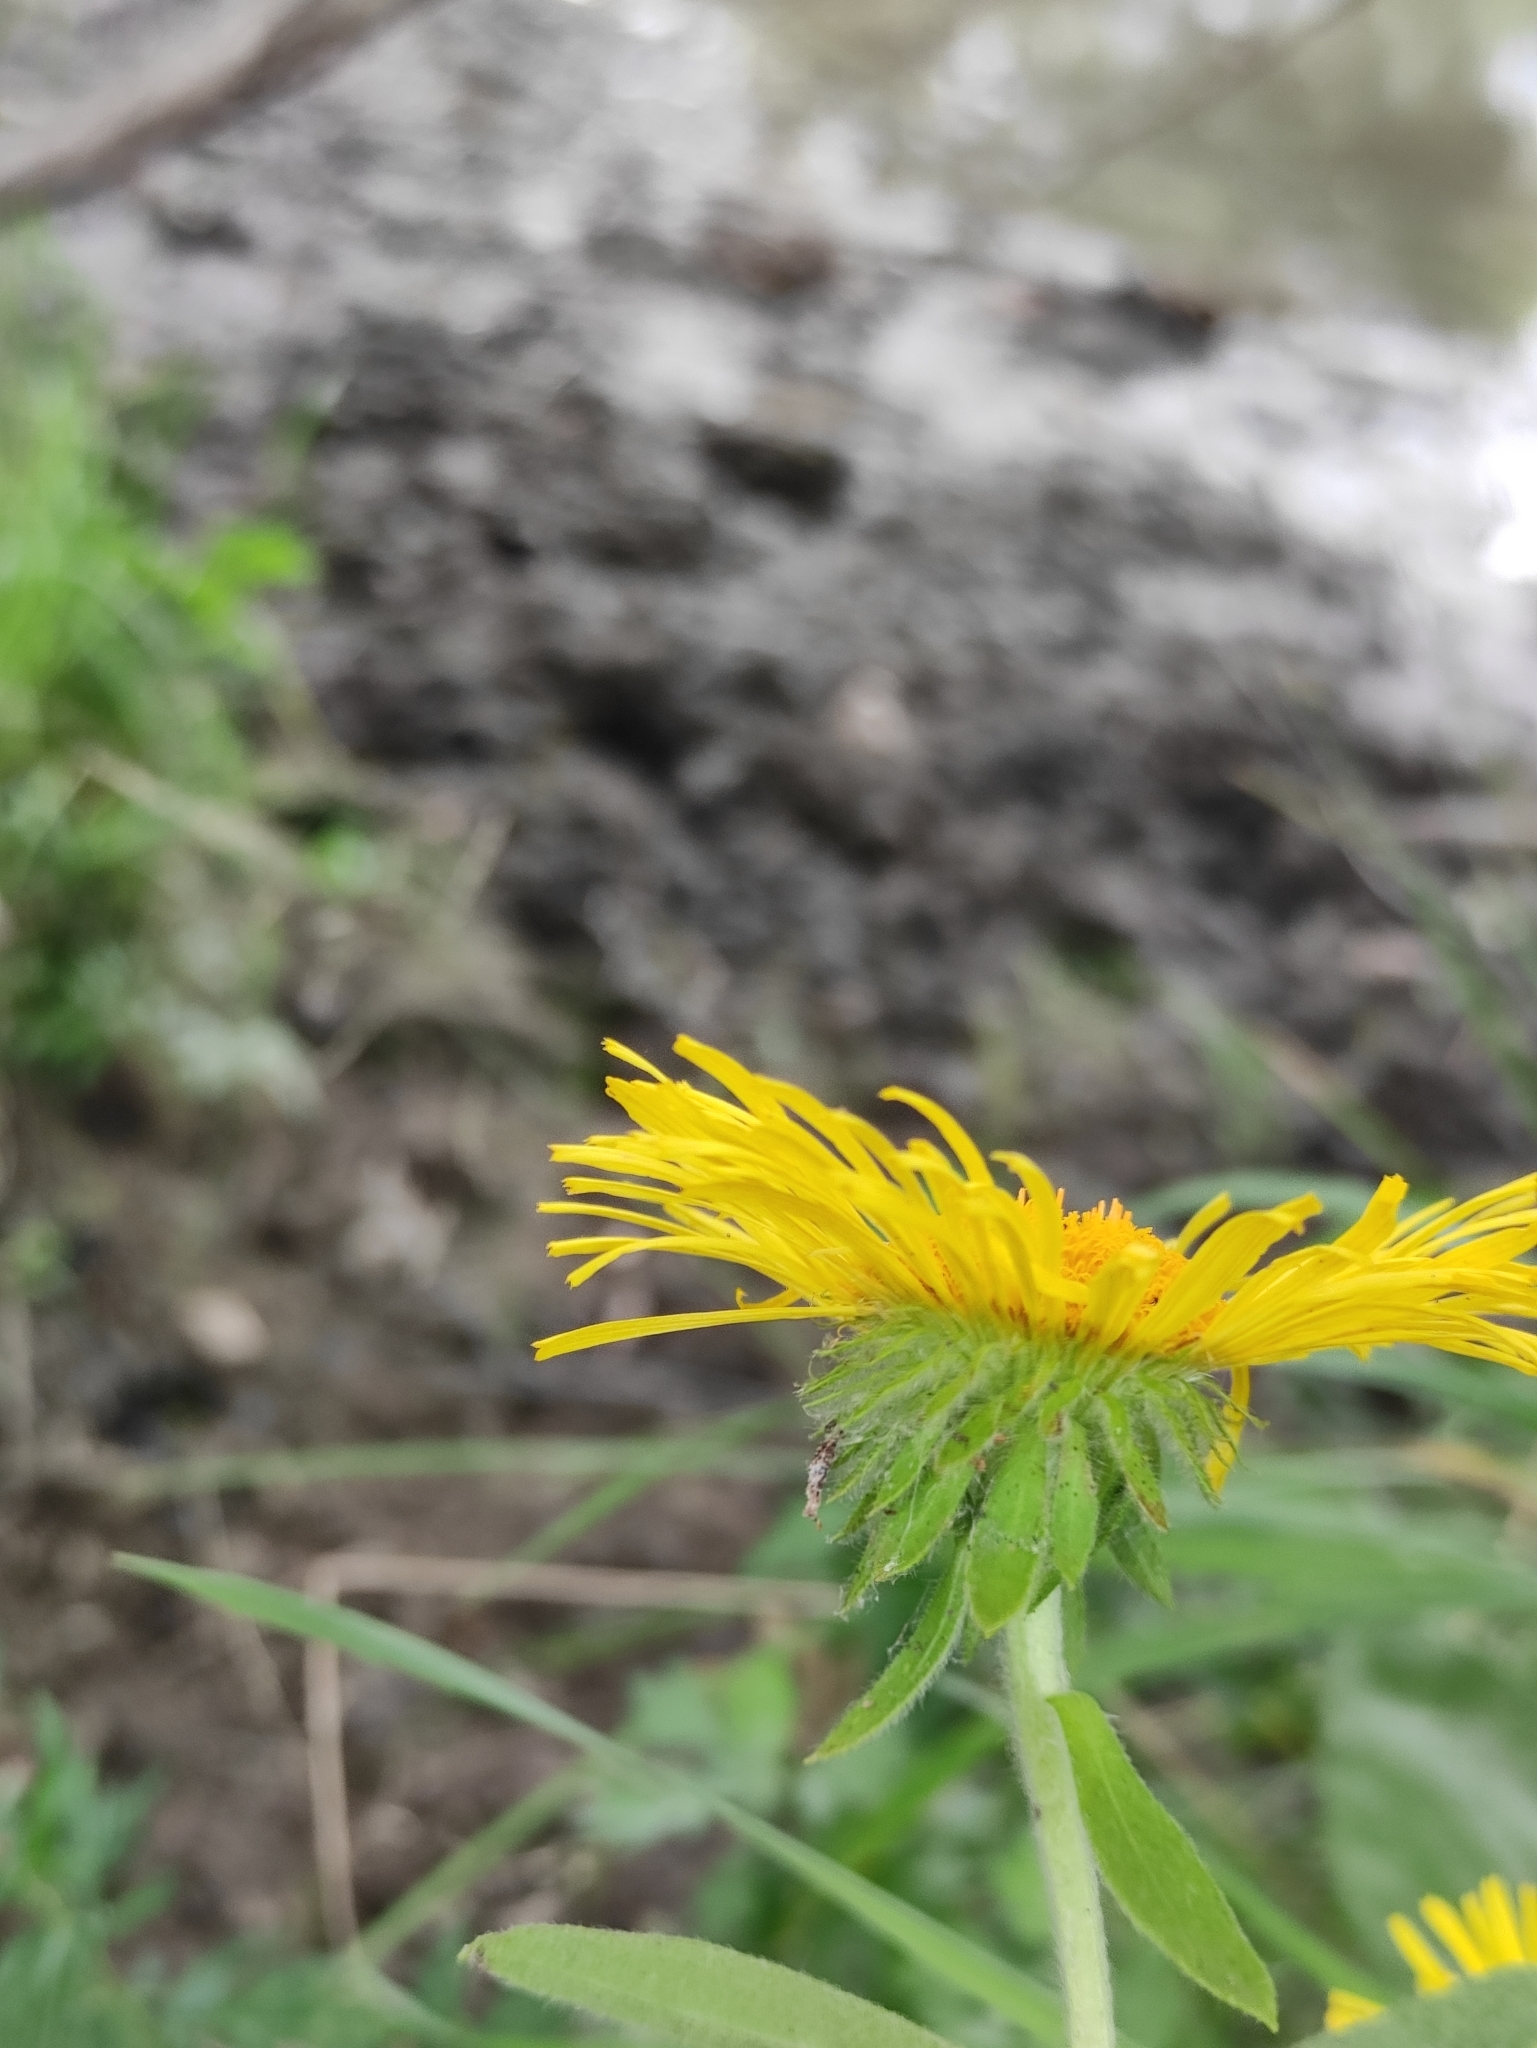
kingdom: Plantae
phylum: Tracheophyta
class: Magnoliopsida
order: Asterales
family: Asteraceae
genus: Pentanema
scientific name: Pentanema britannicum
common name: British elecampane
